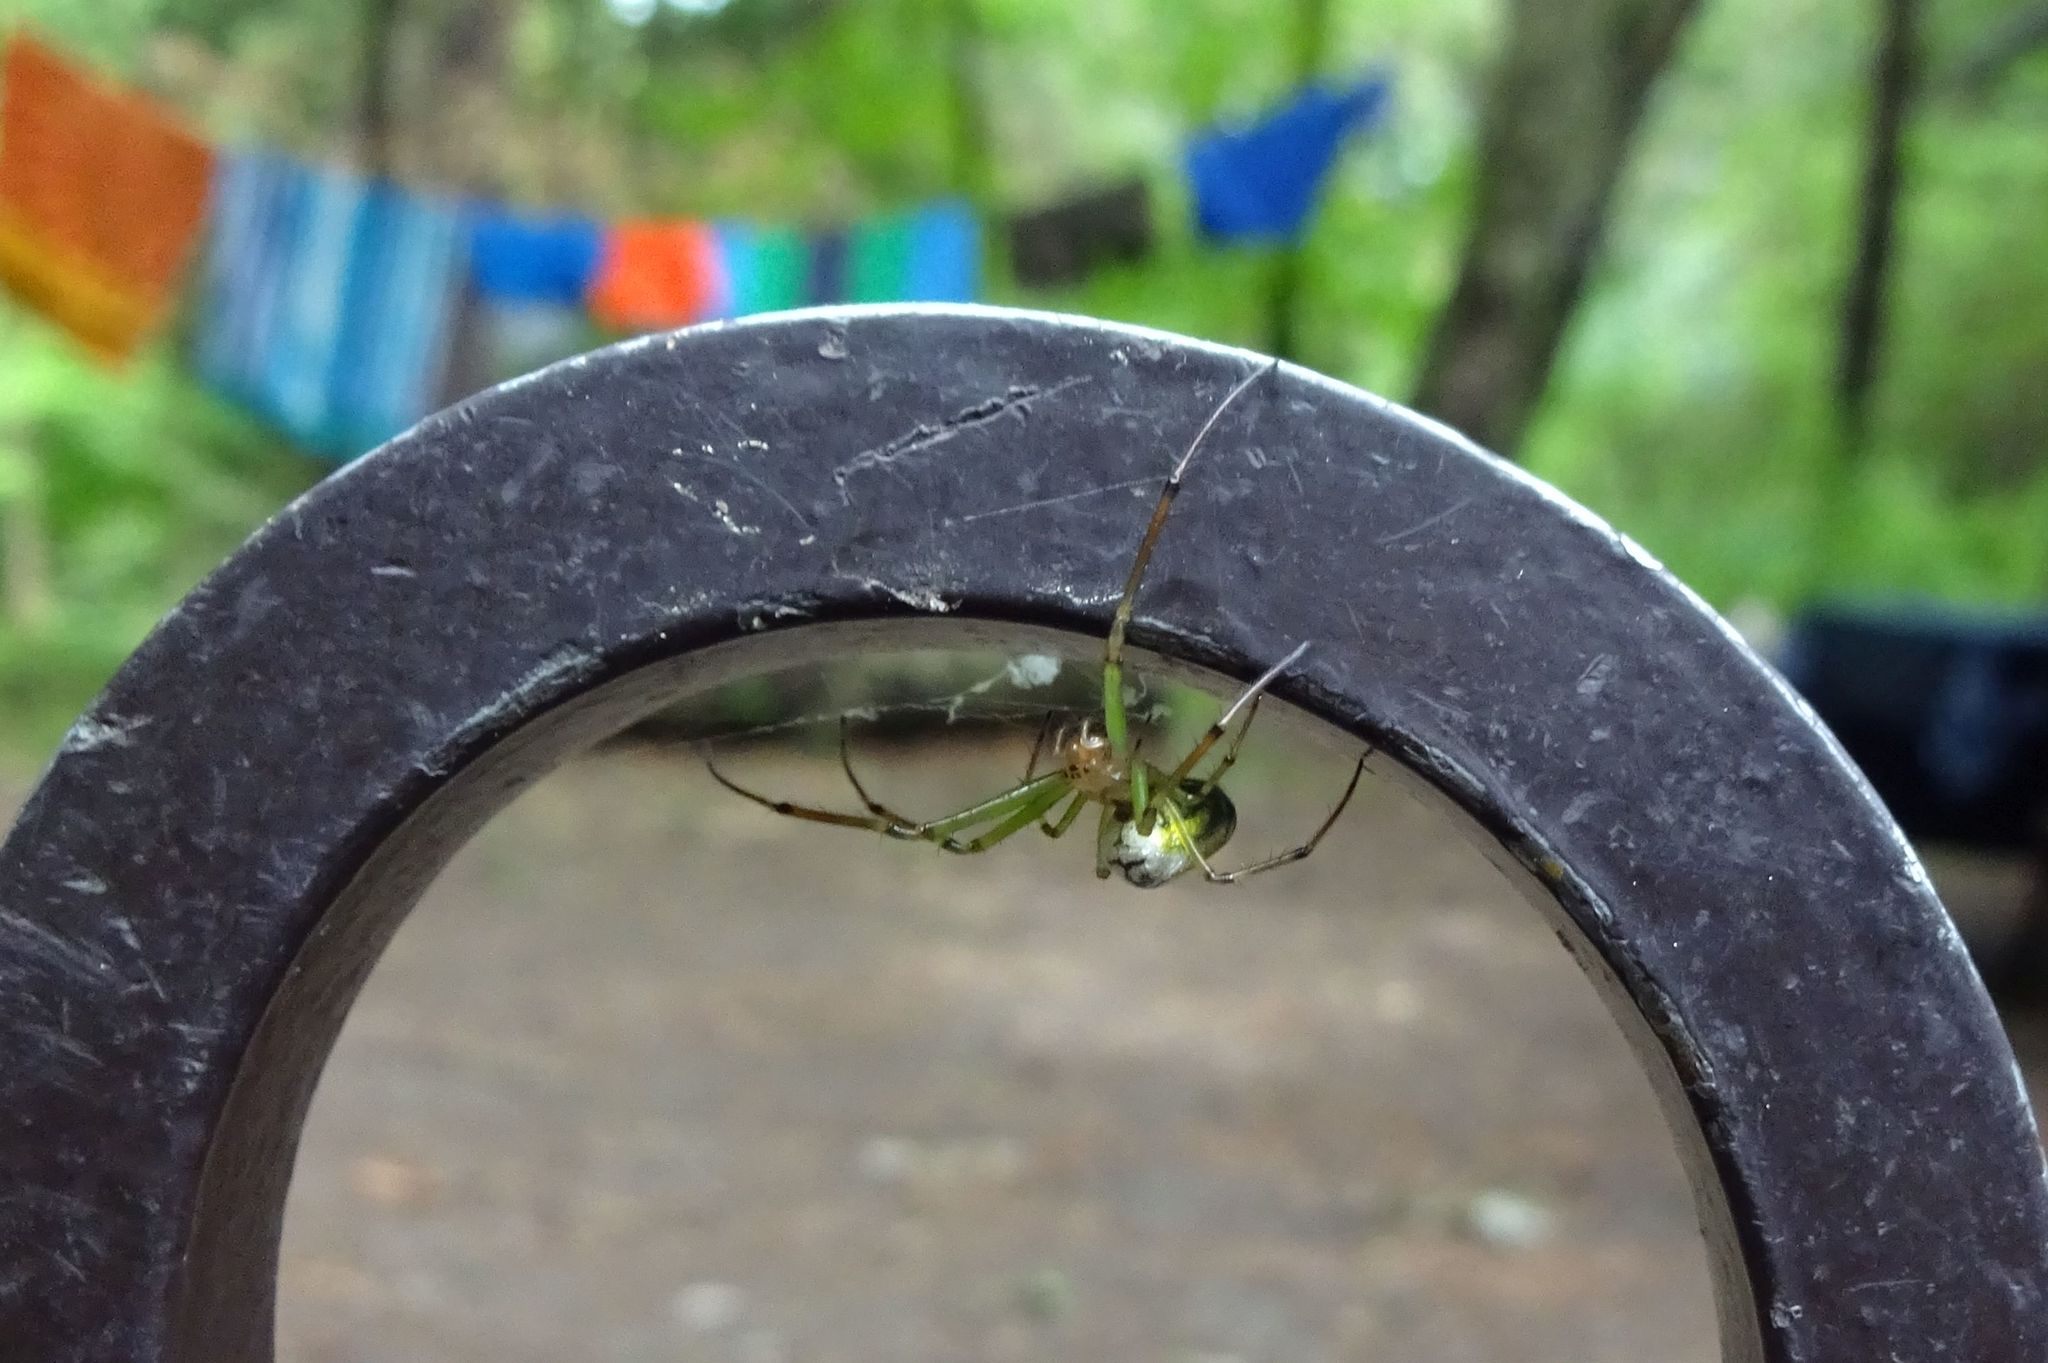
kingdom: Animalia
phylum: Arthropoda
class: Arachnida
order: Araneae
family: Tetragnathidae
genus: Leucauge
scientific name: Leucauge venusta
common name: Longjawed orb weavers
